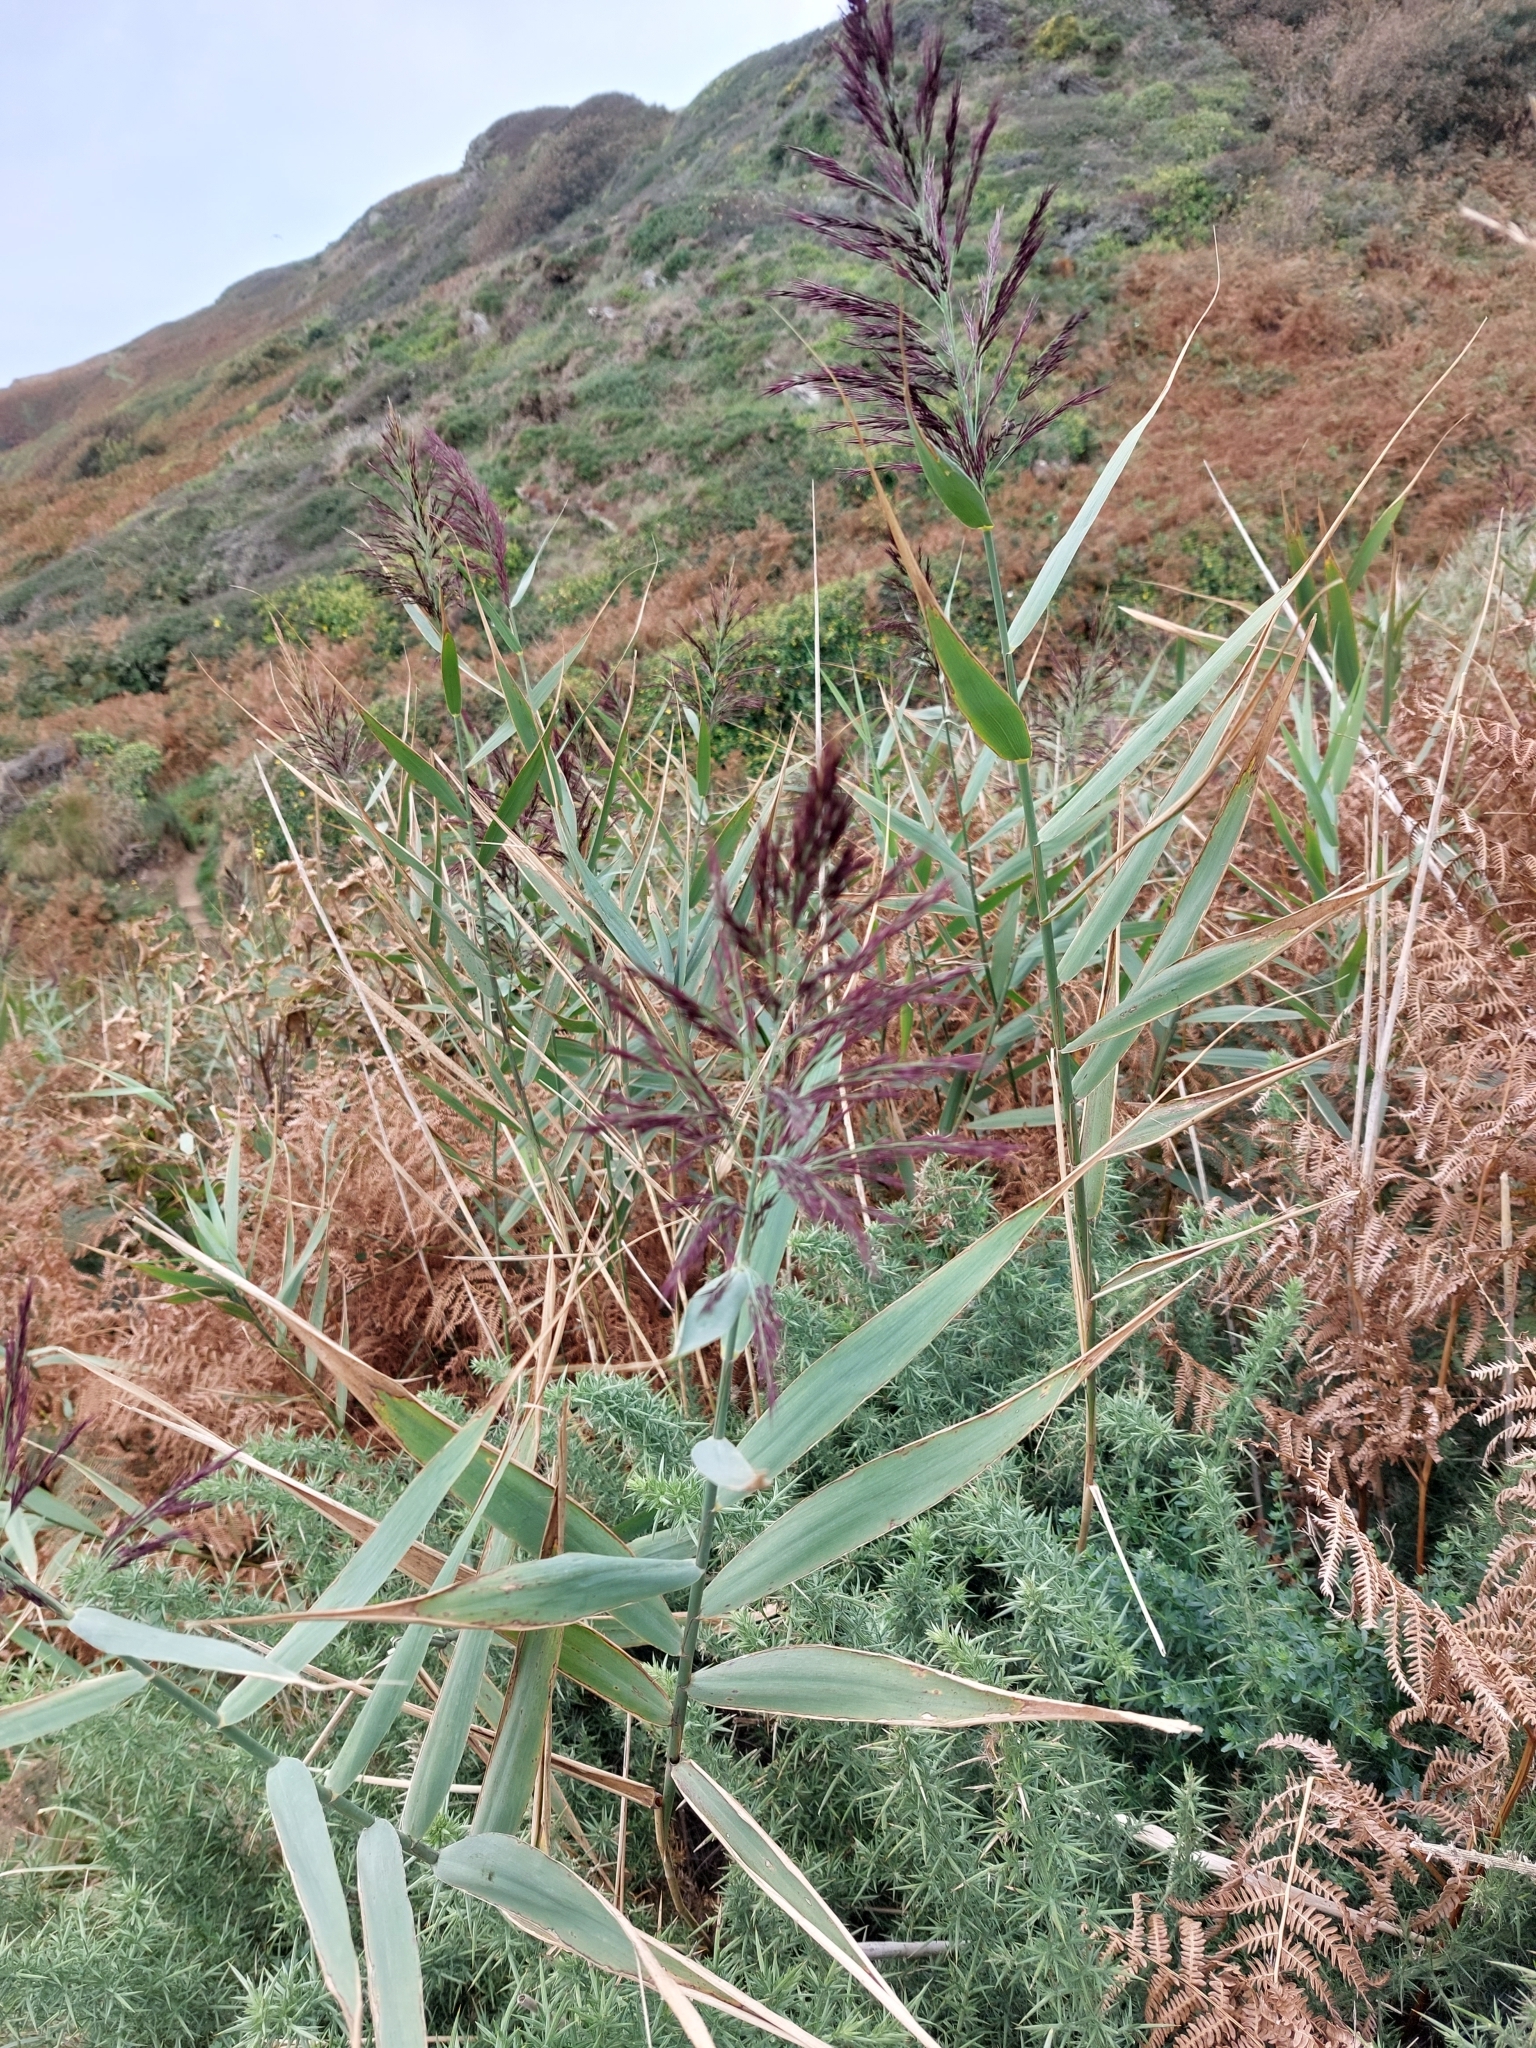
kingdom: Plantae
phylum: Tracheophyta
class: Liliopsida
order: Poales
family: Poaceae
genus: Phragmites
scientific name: Phragmites australis
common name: Common reed
